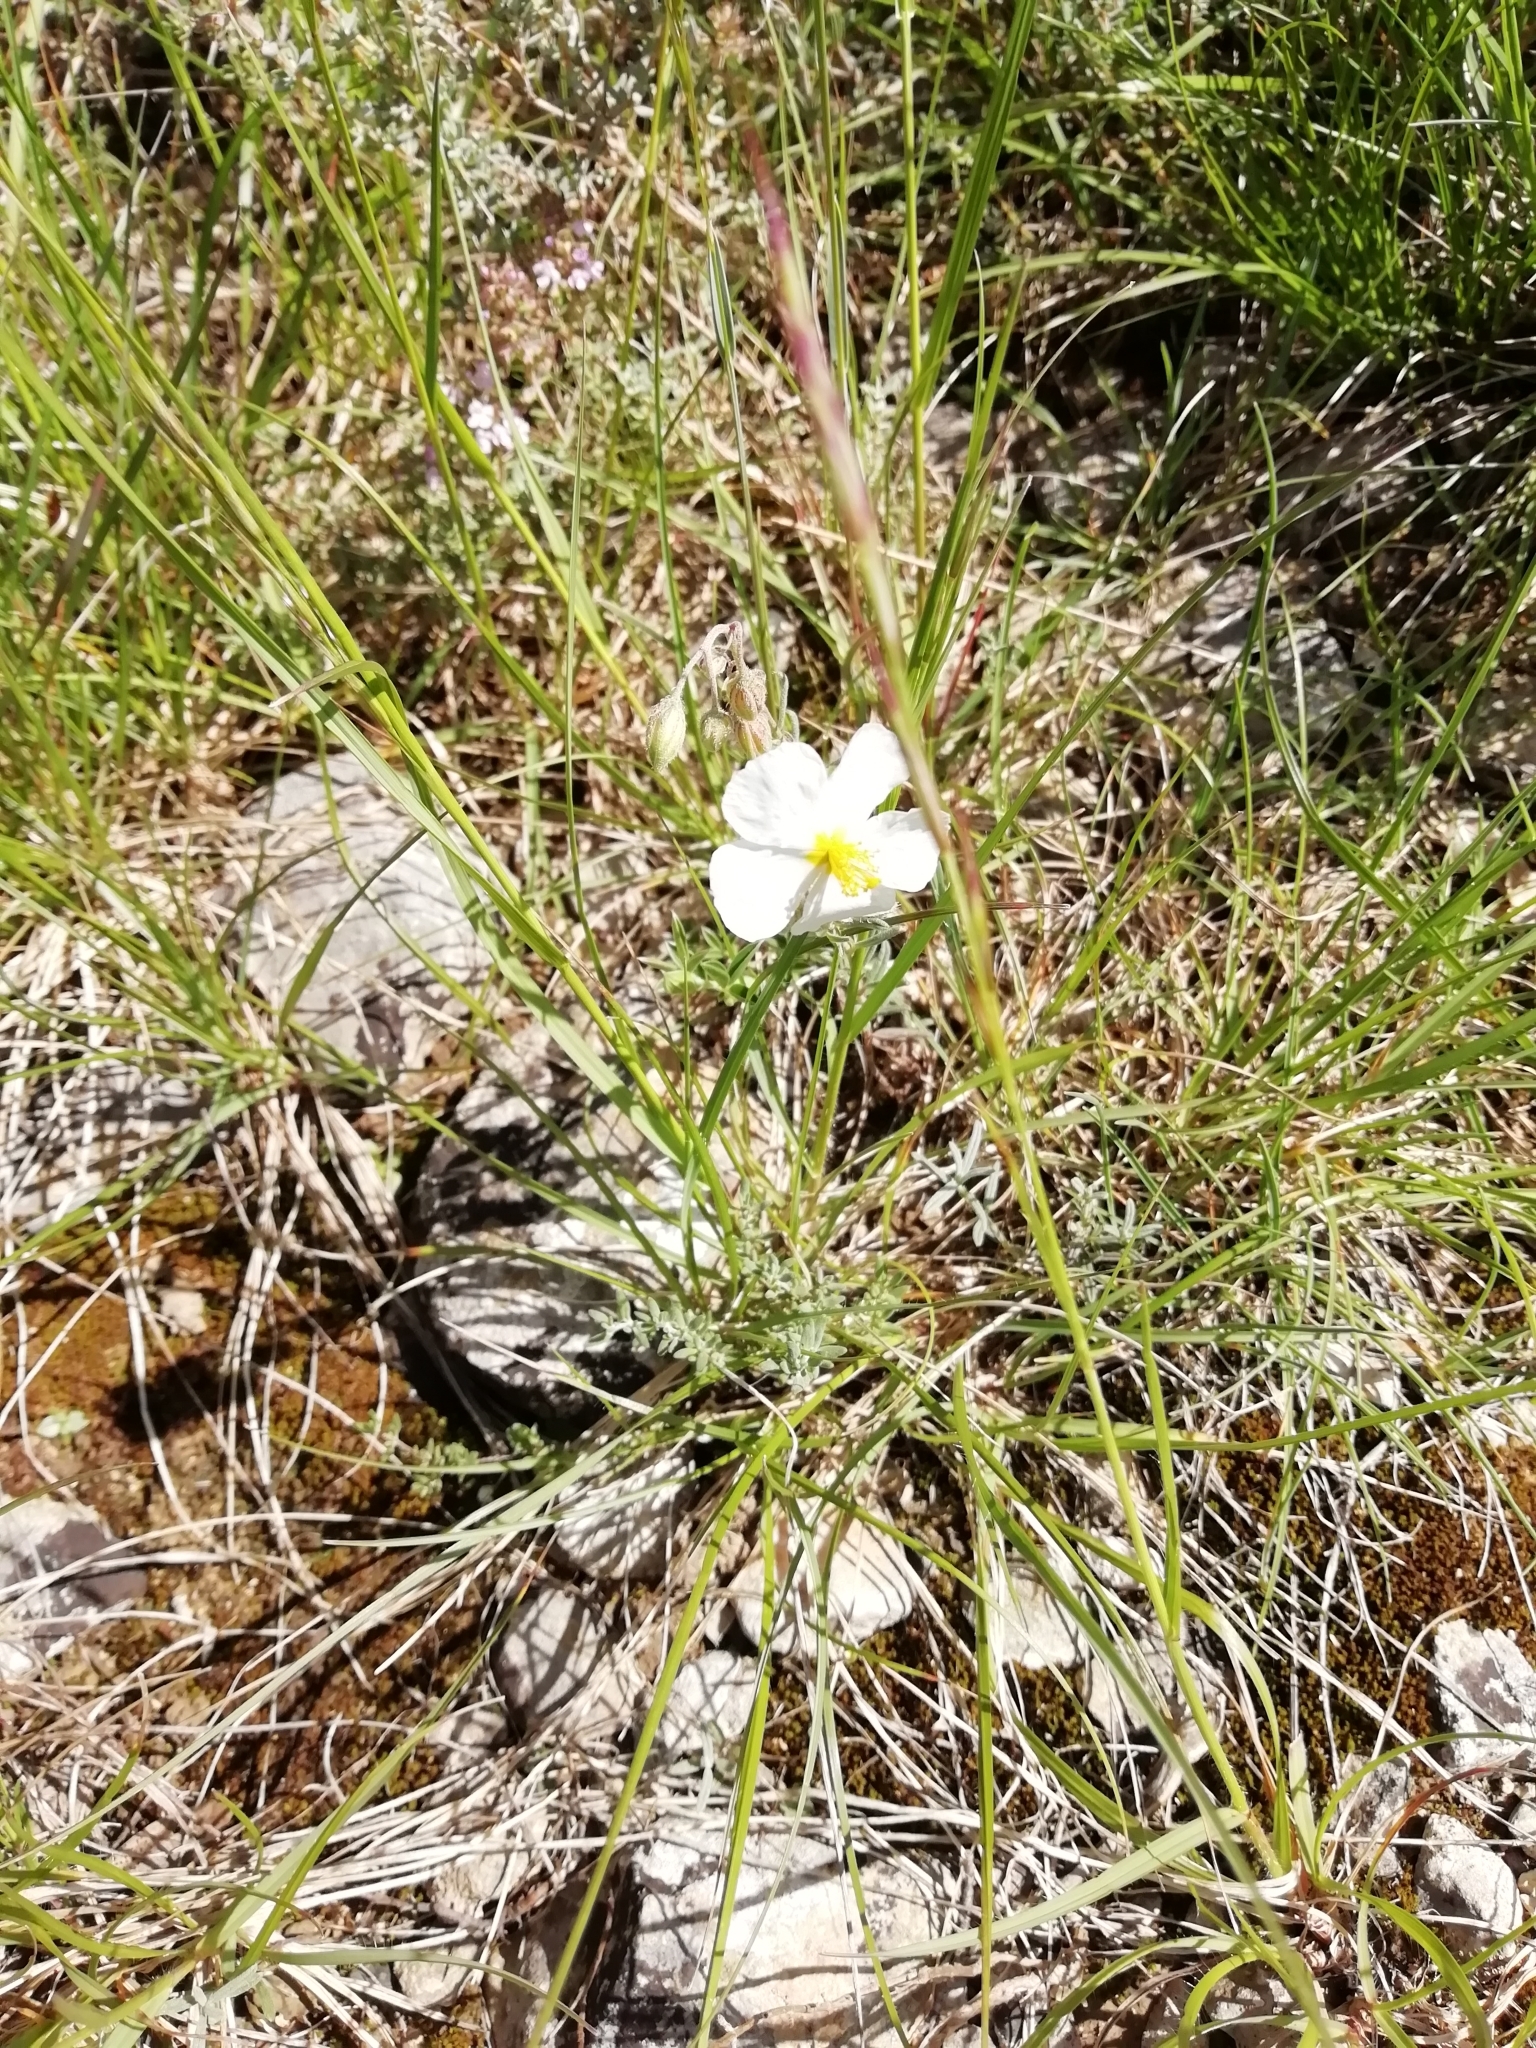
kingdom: Plantae
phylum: Tracheophyta
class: Magnoliopsida
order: Malvales
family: Cistaceae
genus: Helianthemum
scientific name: Helianthemum apenninum
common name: White rock-rose
